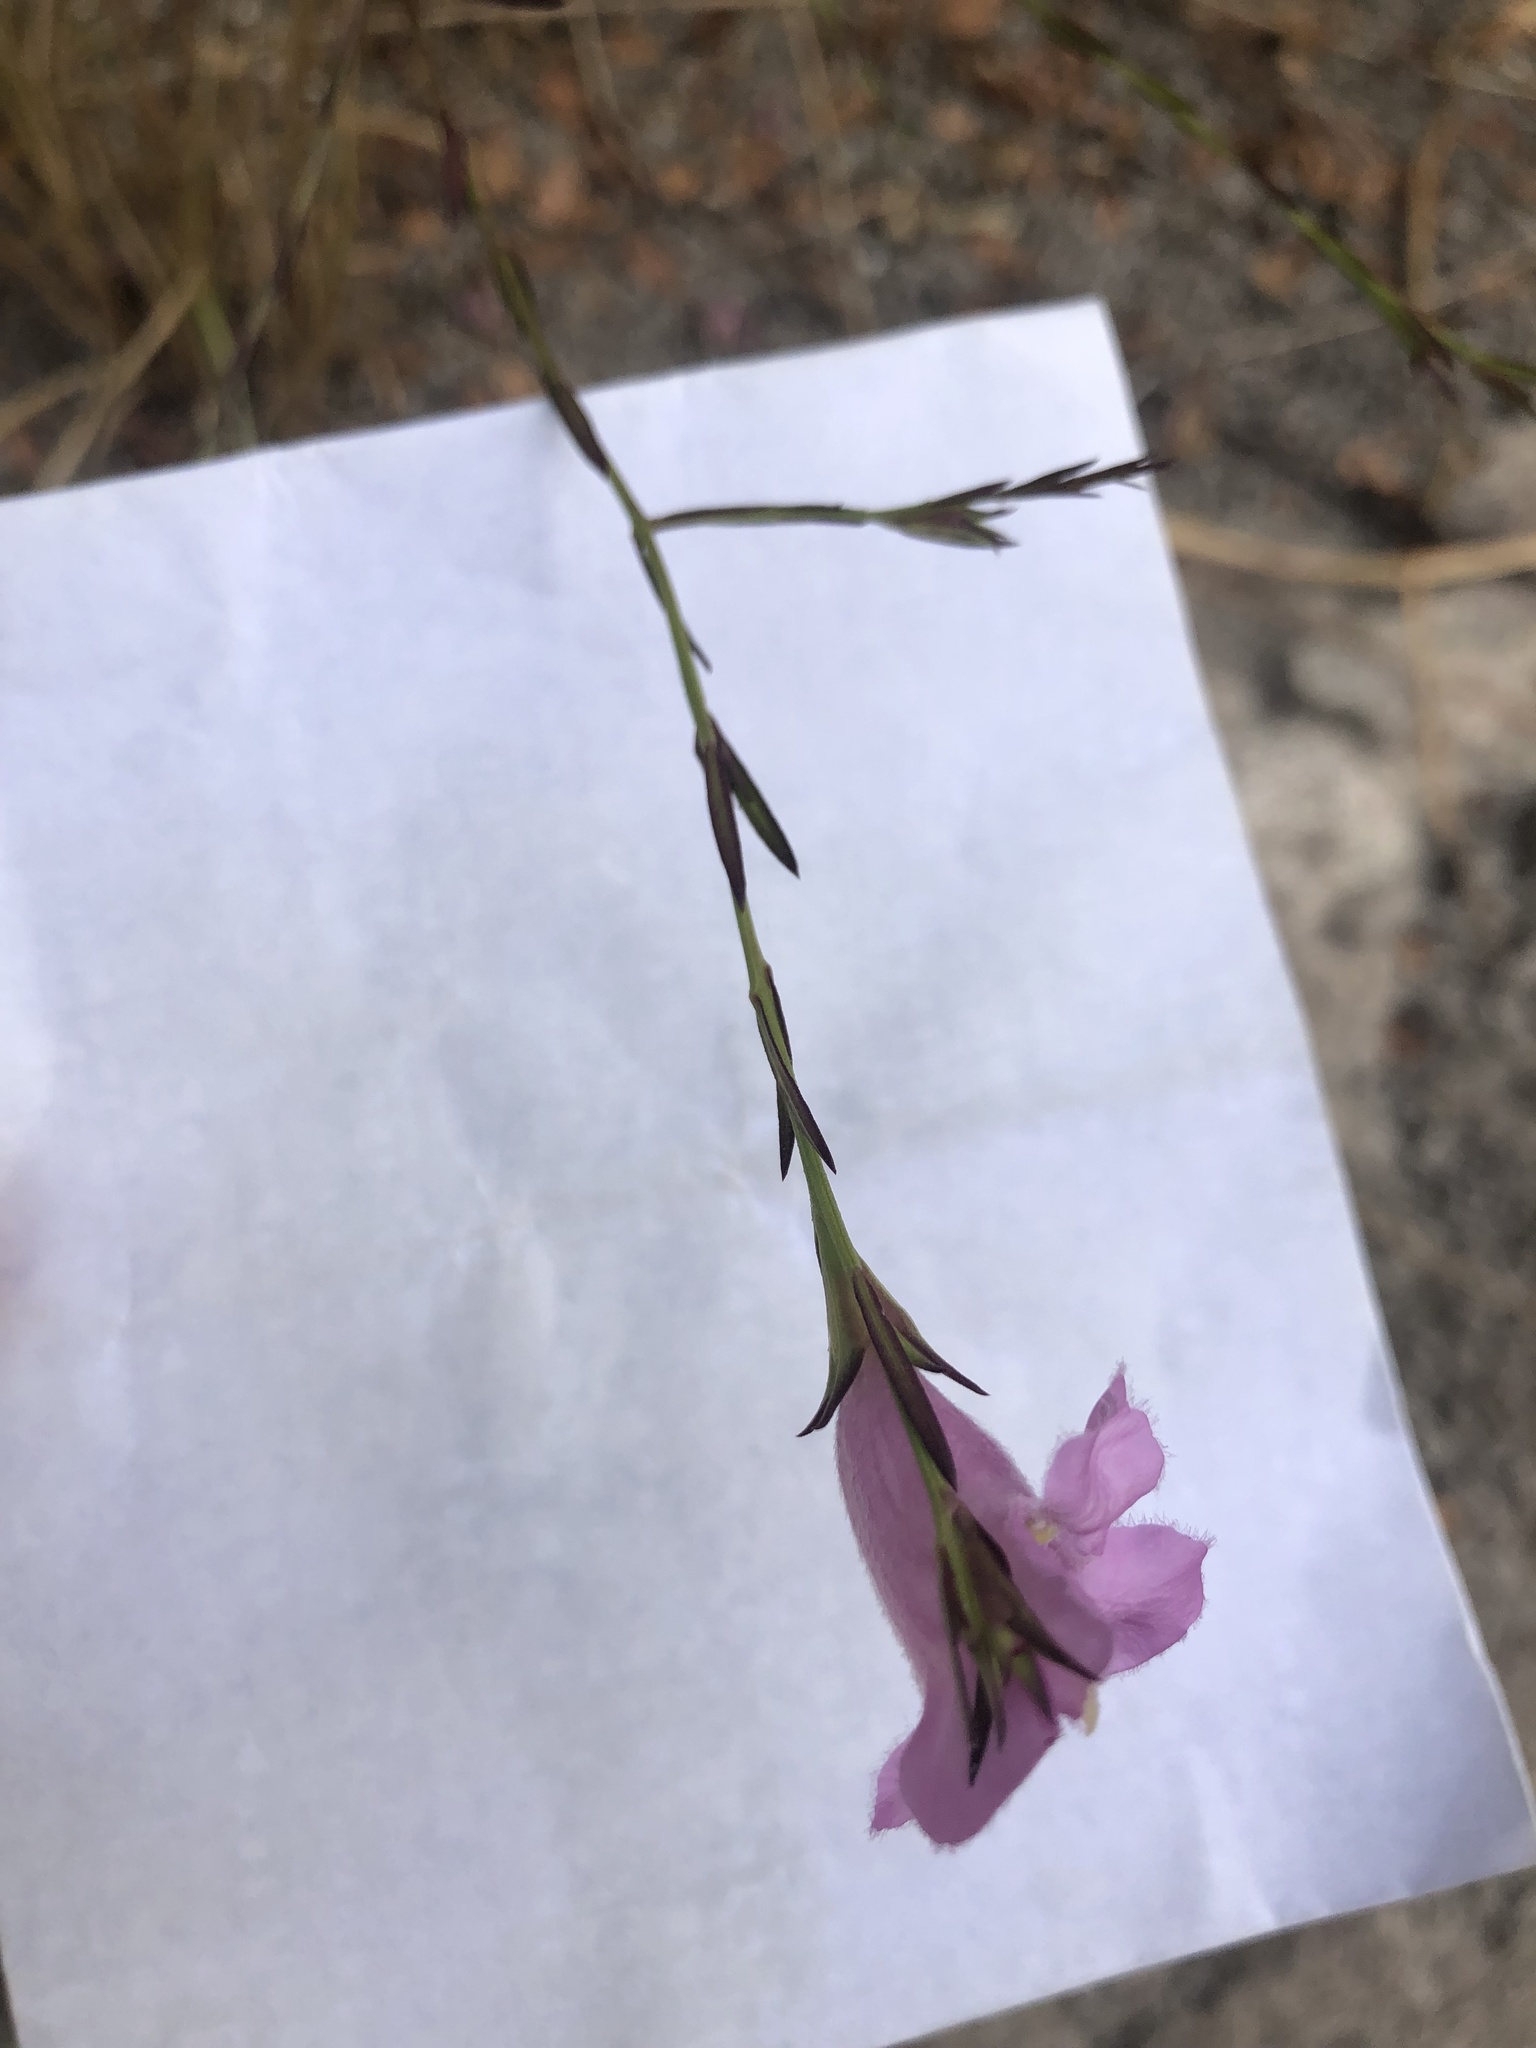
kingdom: Plantae
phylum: Tracheophyta
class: Magnoliopsida
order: Lamiales
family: Orobanchaceae
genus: Agalinis
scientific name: Agalinis heterophylla
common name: Prairie agalinis
